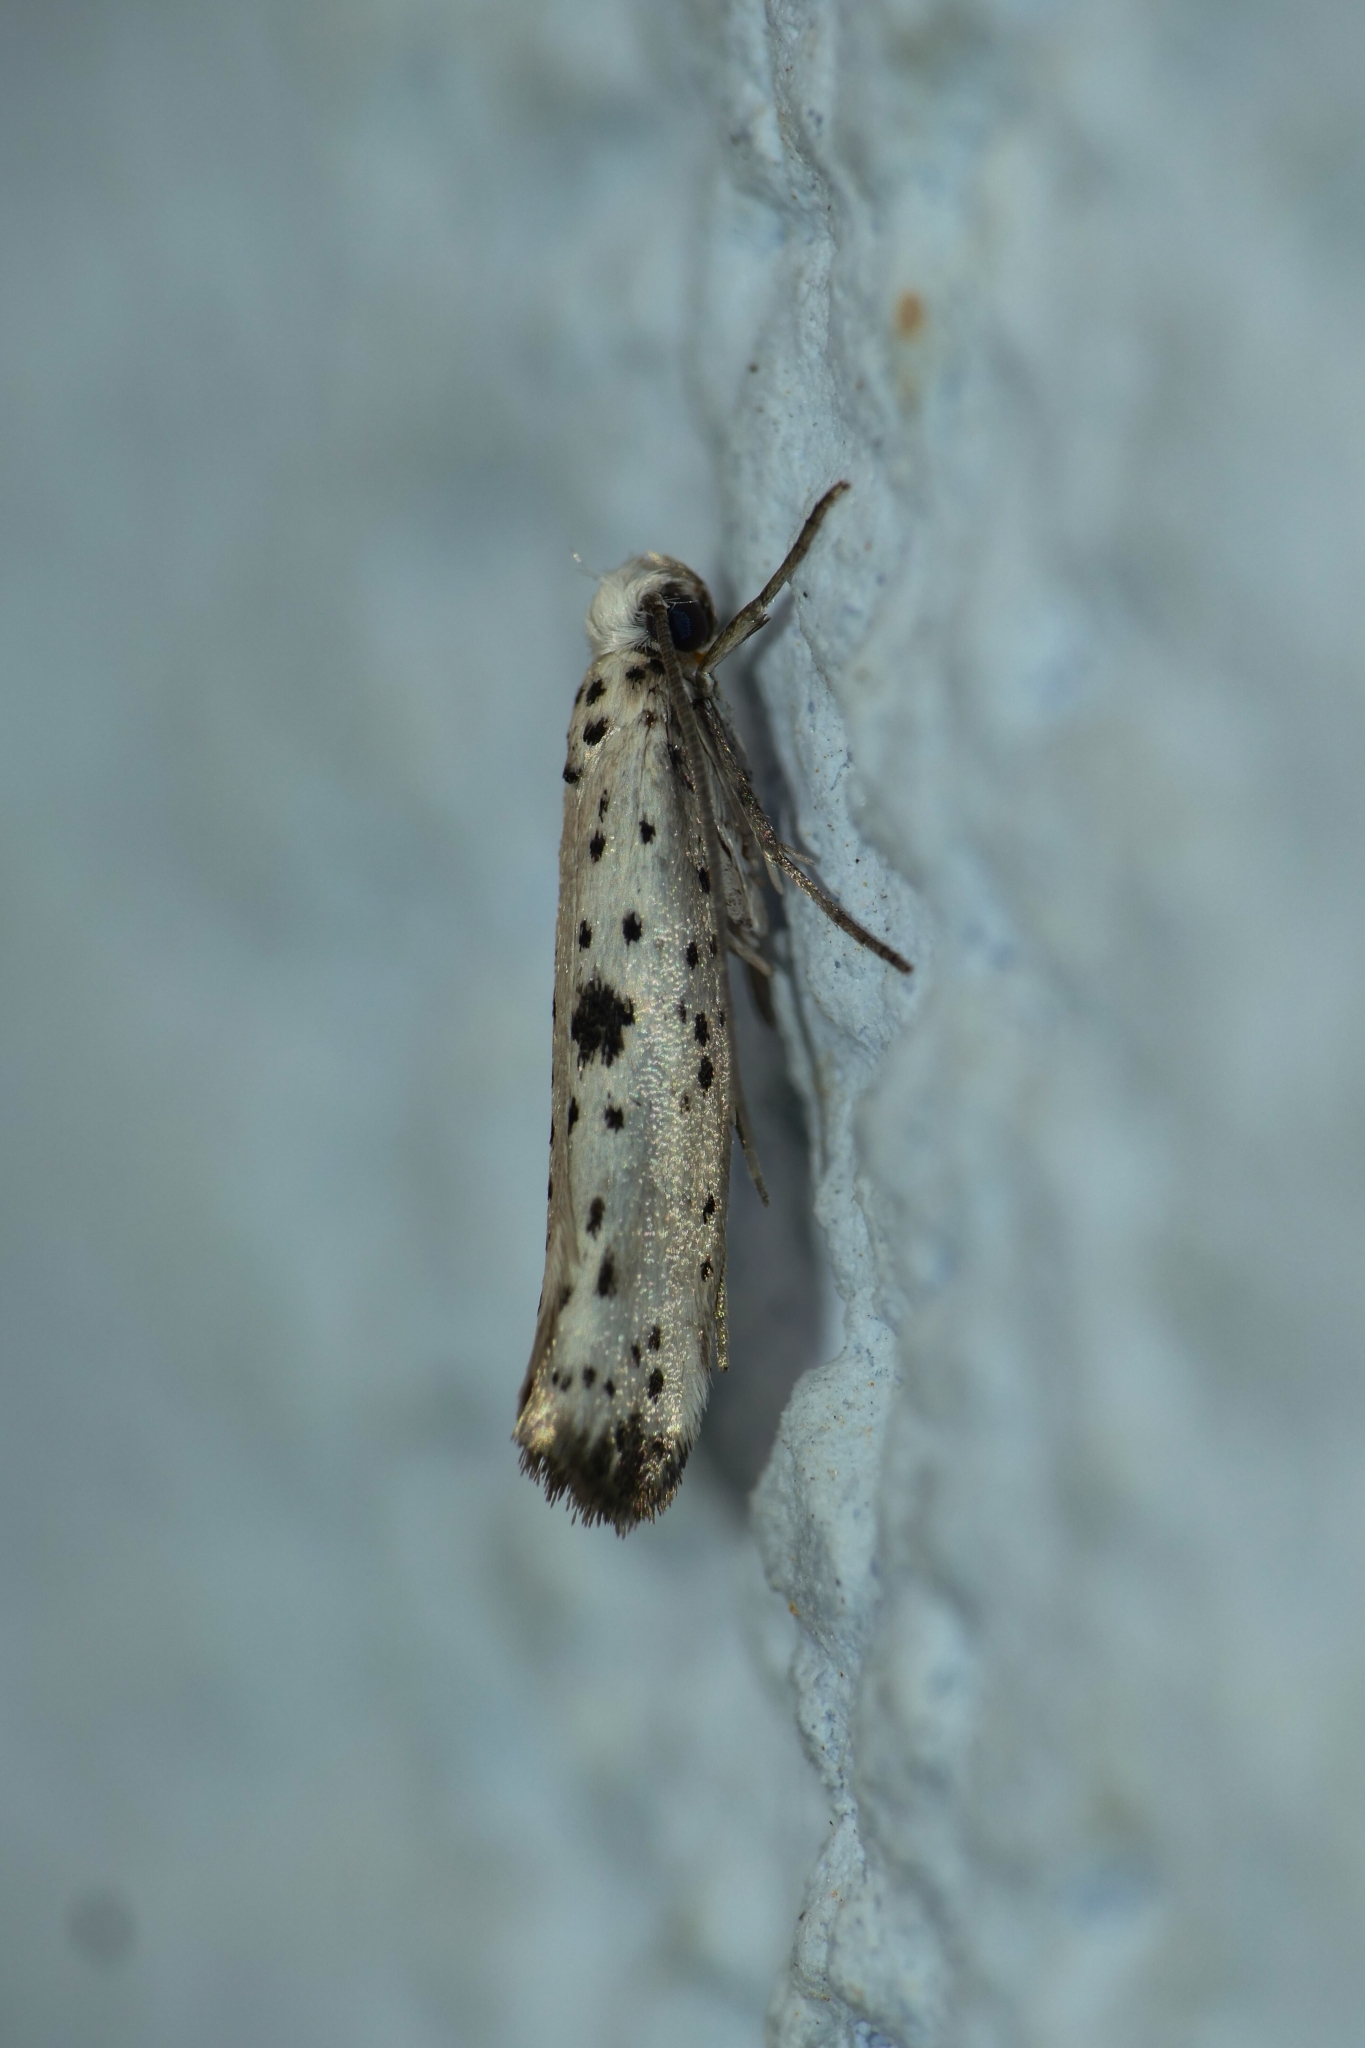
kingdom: Animalia
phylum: Arthropoda
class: Insecta
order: Lepidoptera
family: Yponomeutidae
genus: Yponomeuta
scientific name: Yponomeuta plumbella
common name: Black-tipped ermine
